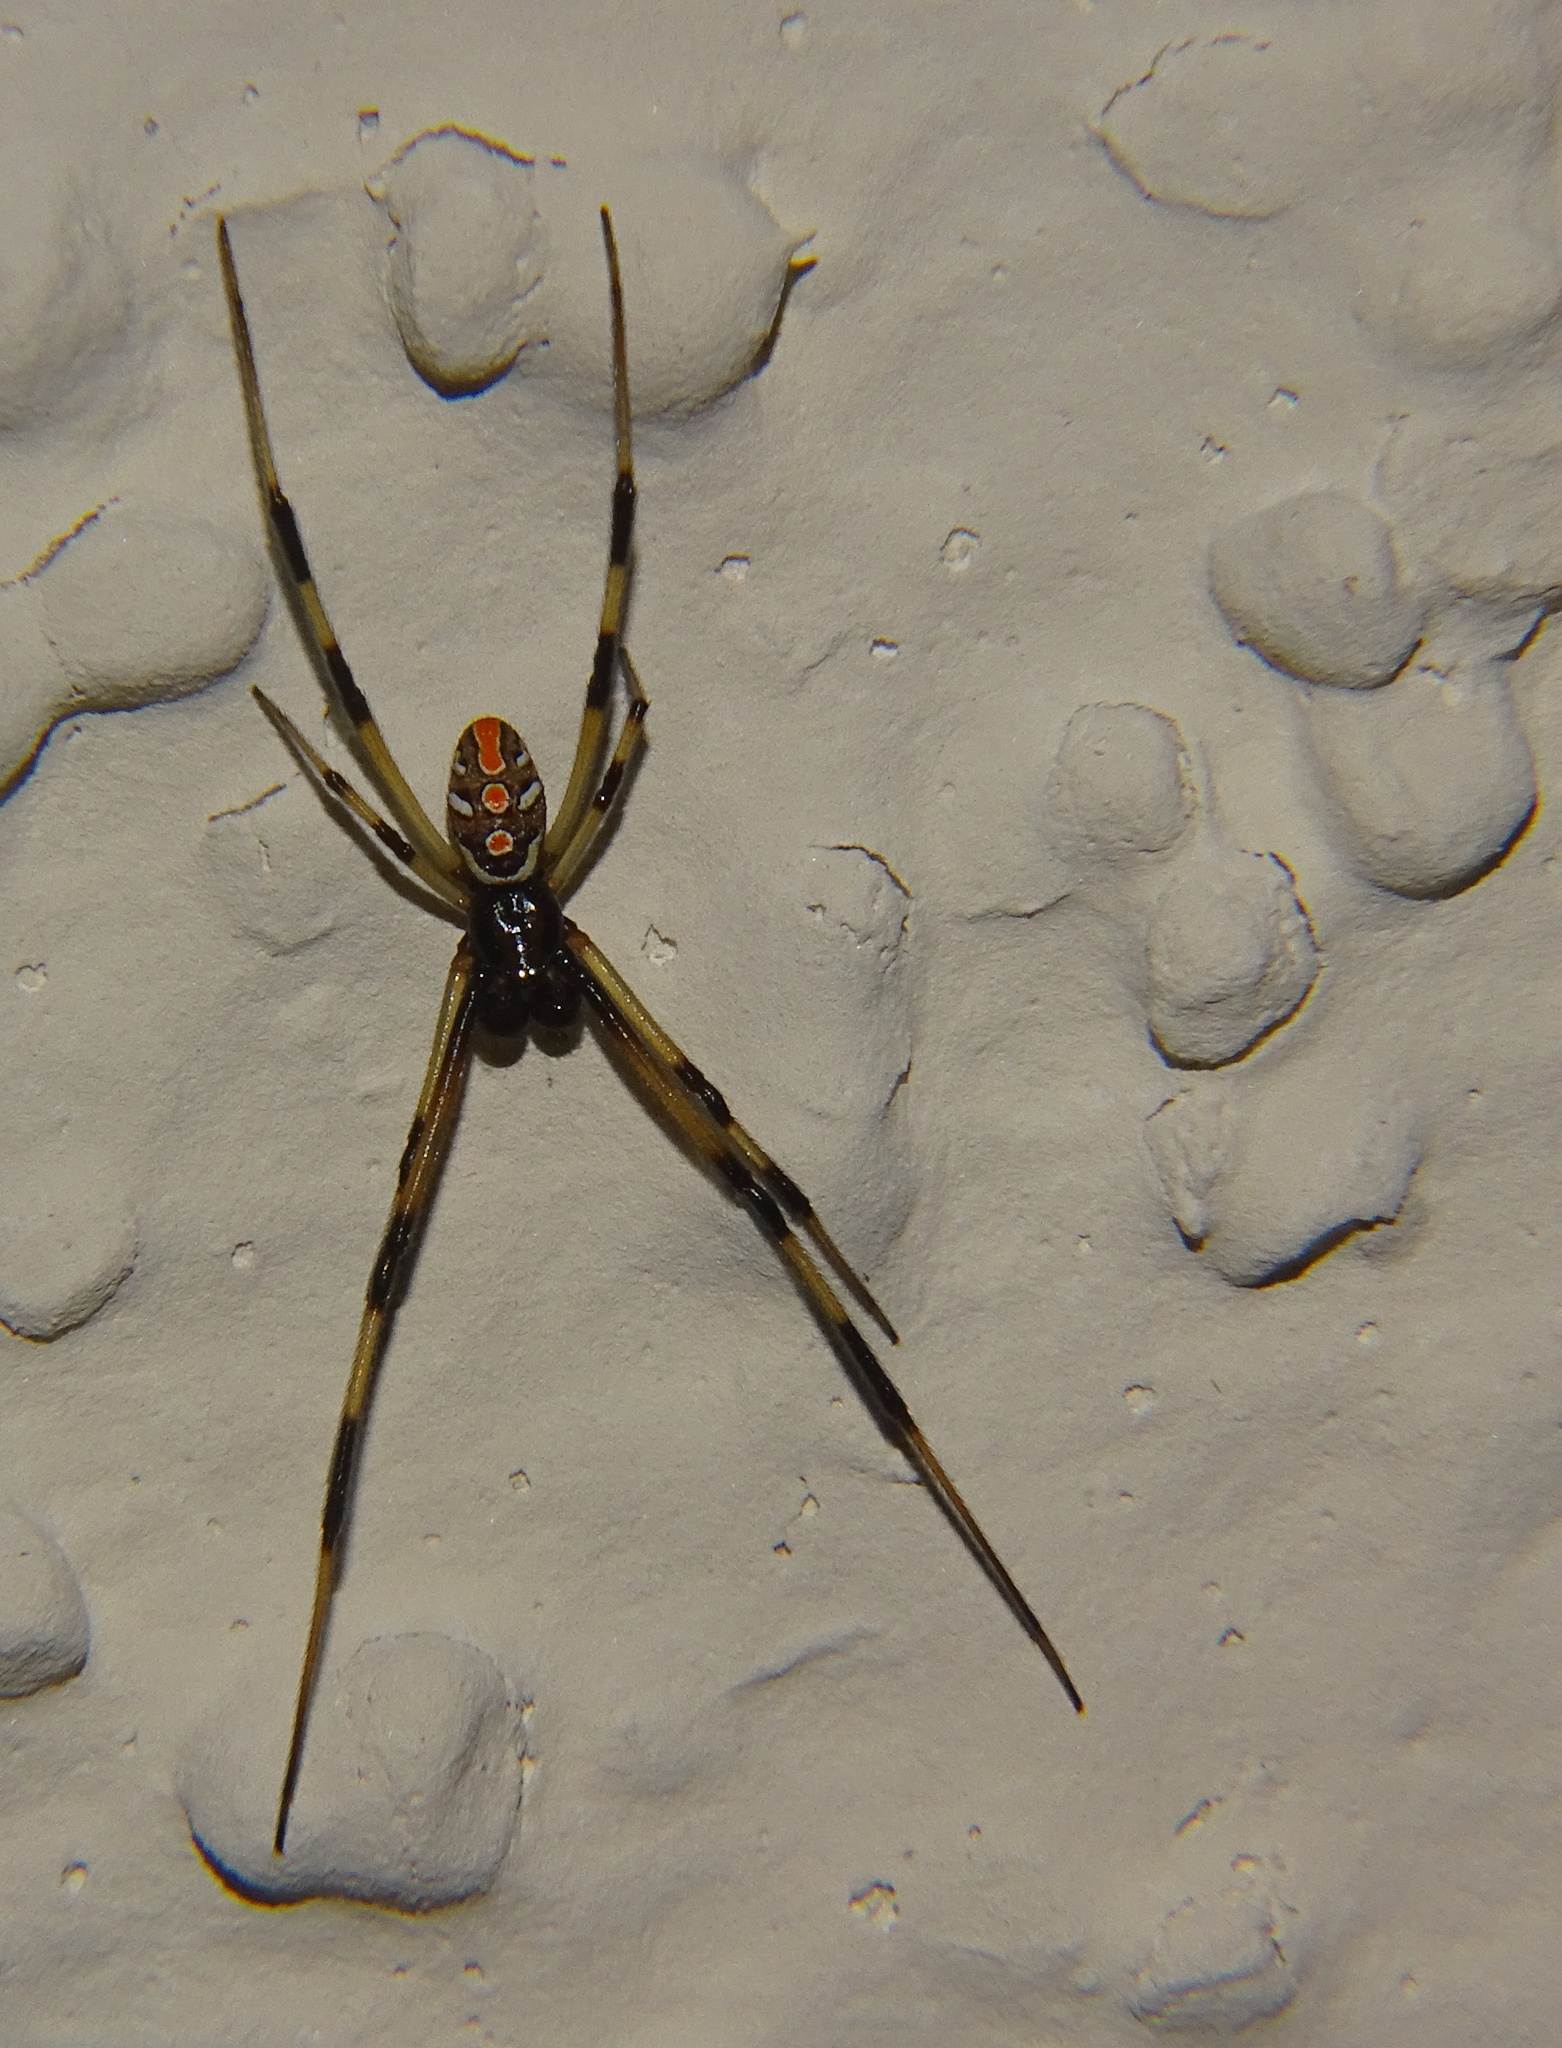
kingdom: Animalia
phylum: Arthropoda
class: Arachnida
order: Araneae
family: Theridiidae
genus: Latrodectus
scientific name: Latrodectus mactans
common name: Cobweb spiders
